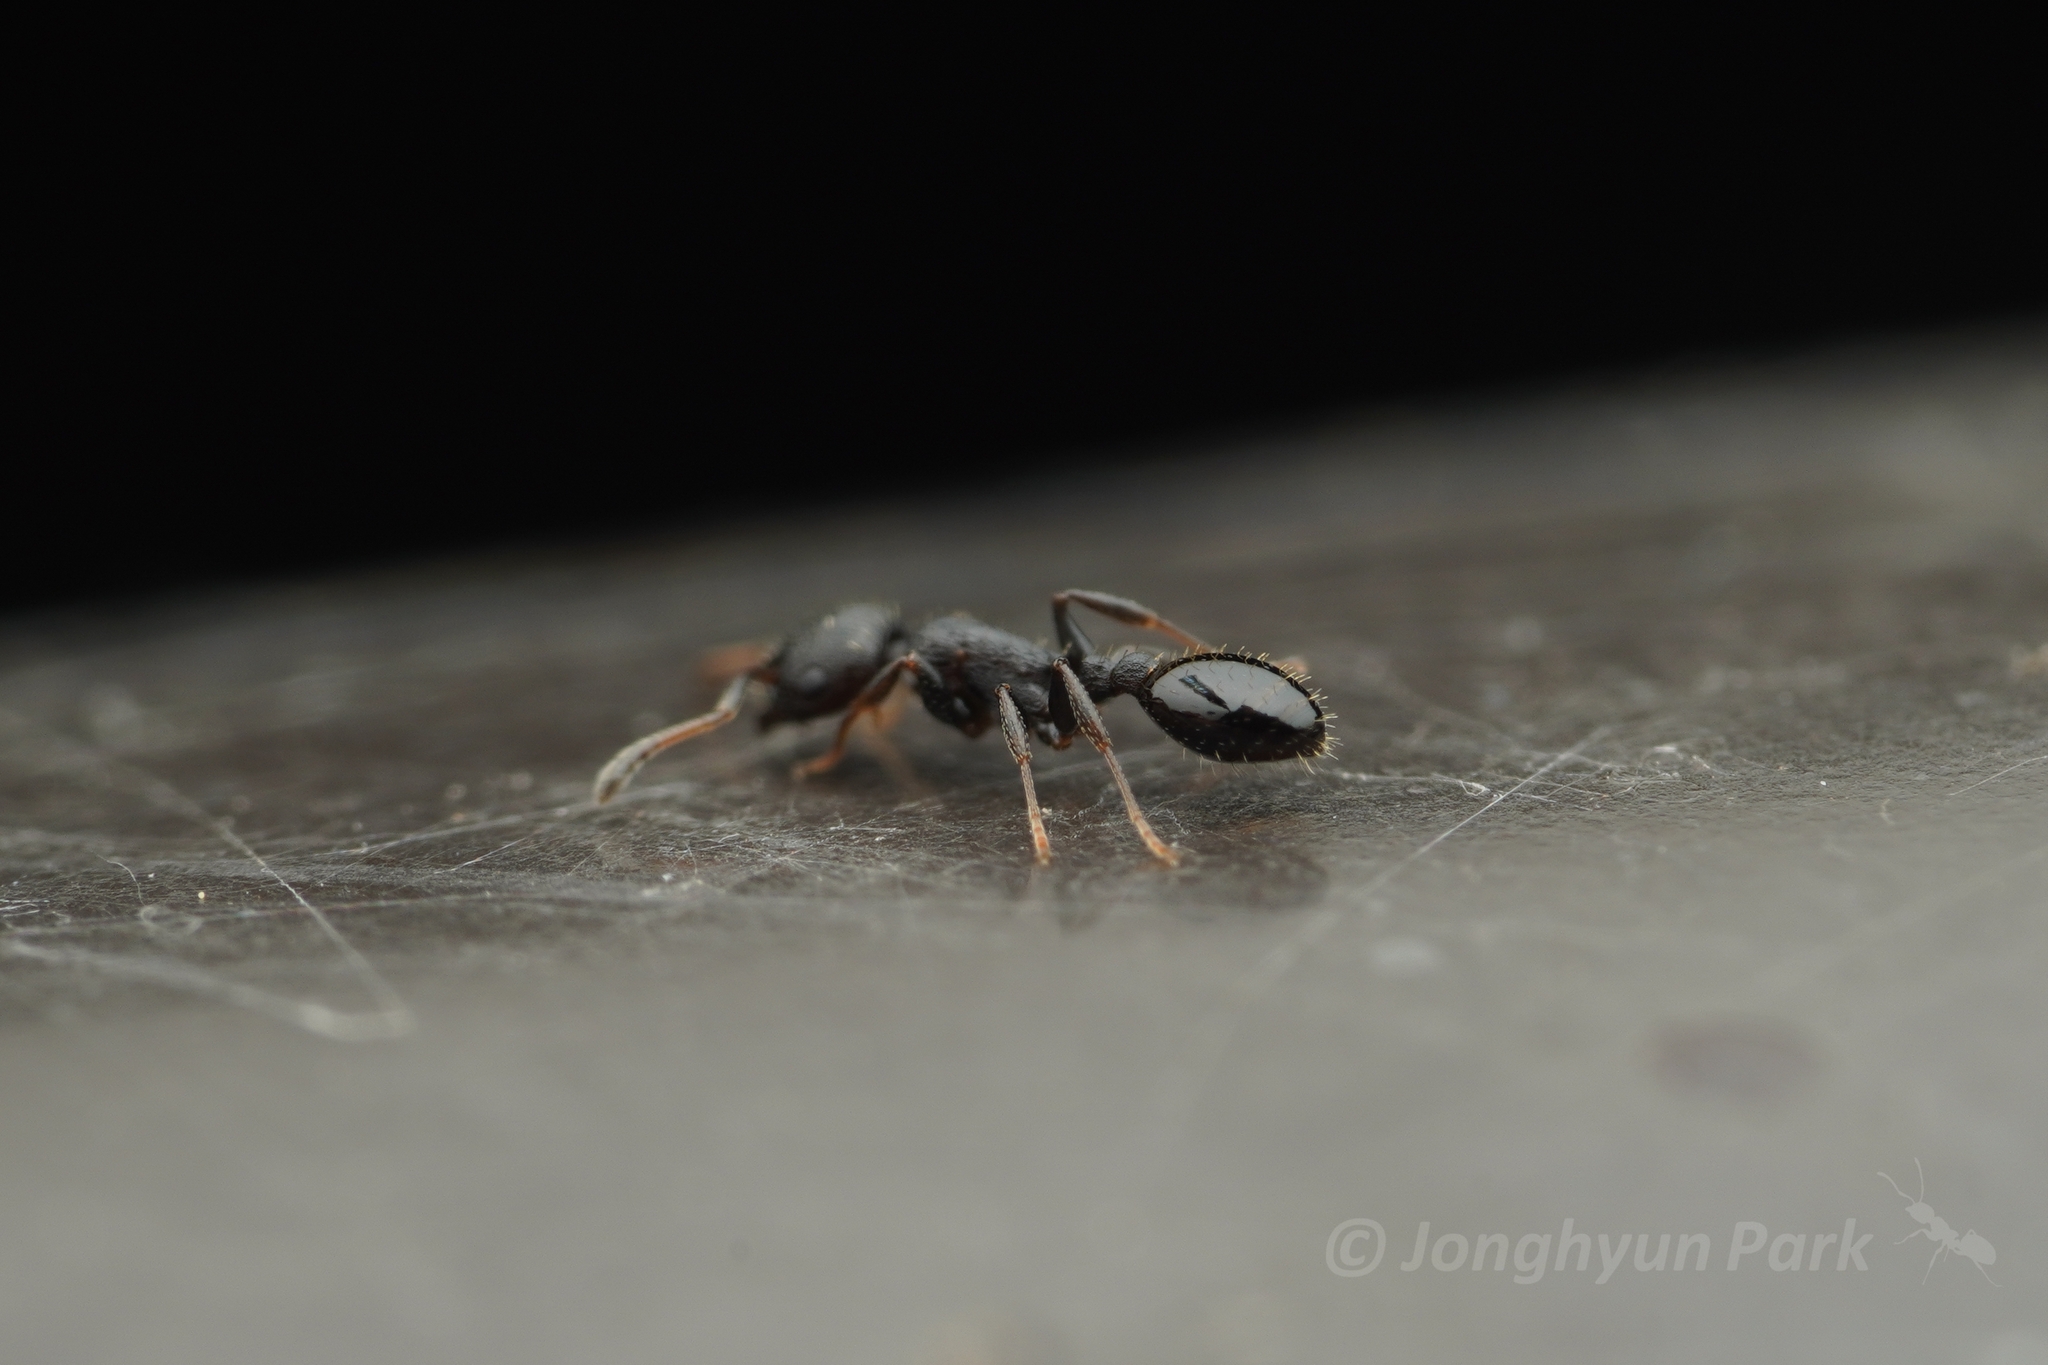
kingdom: Animalia
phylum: Arthropoda
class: Insecta
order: Hymenoptera
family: Formicidae
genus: Temnothorax
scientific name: Temnothorax
